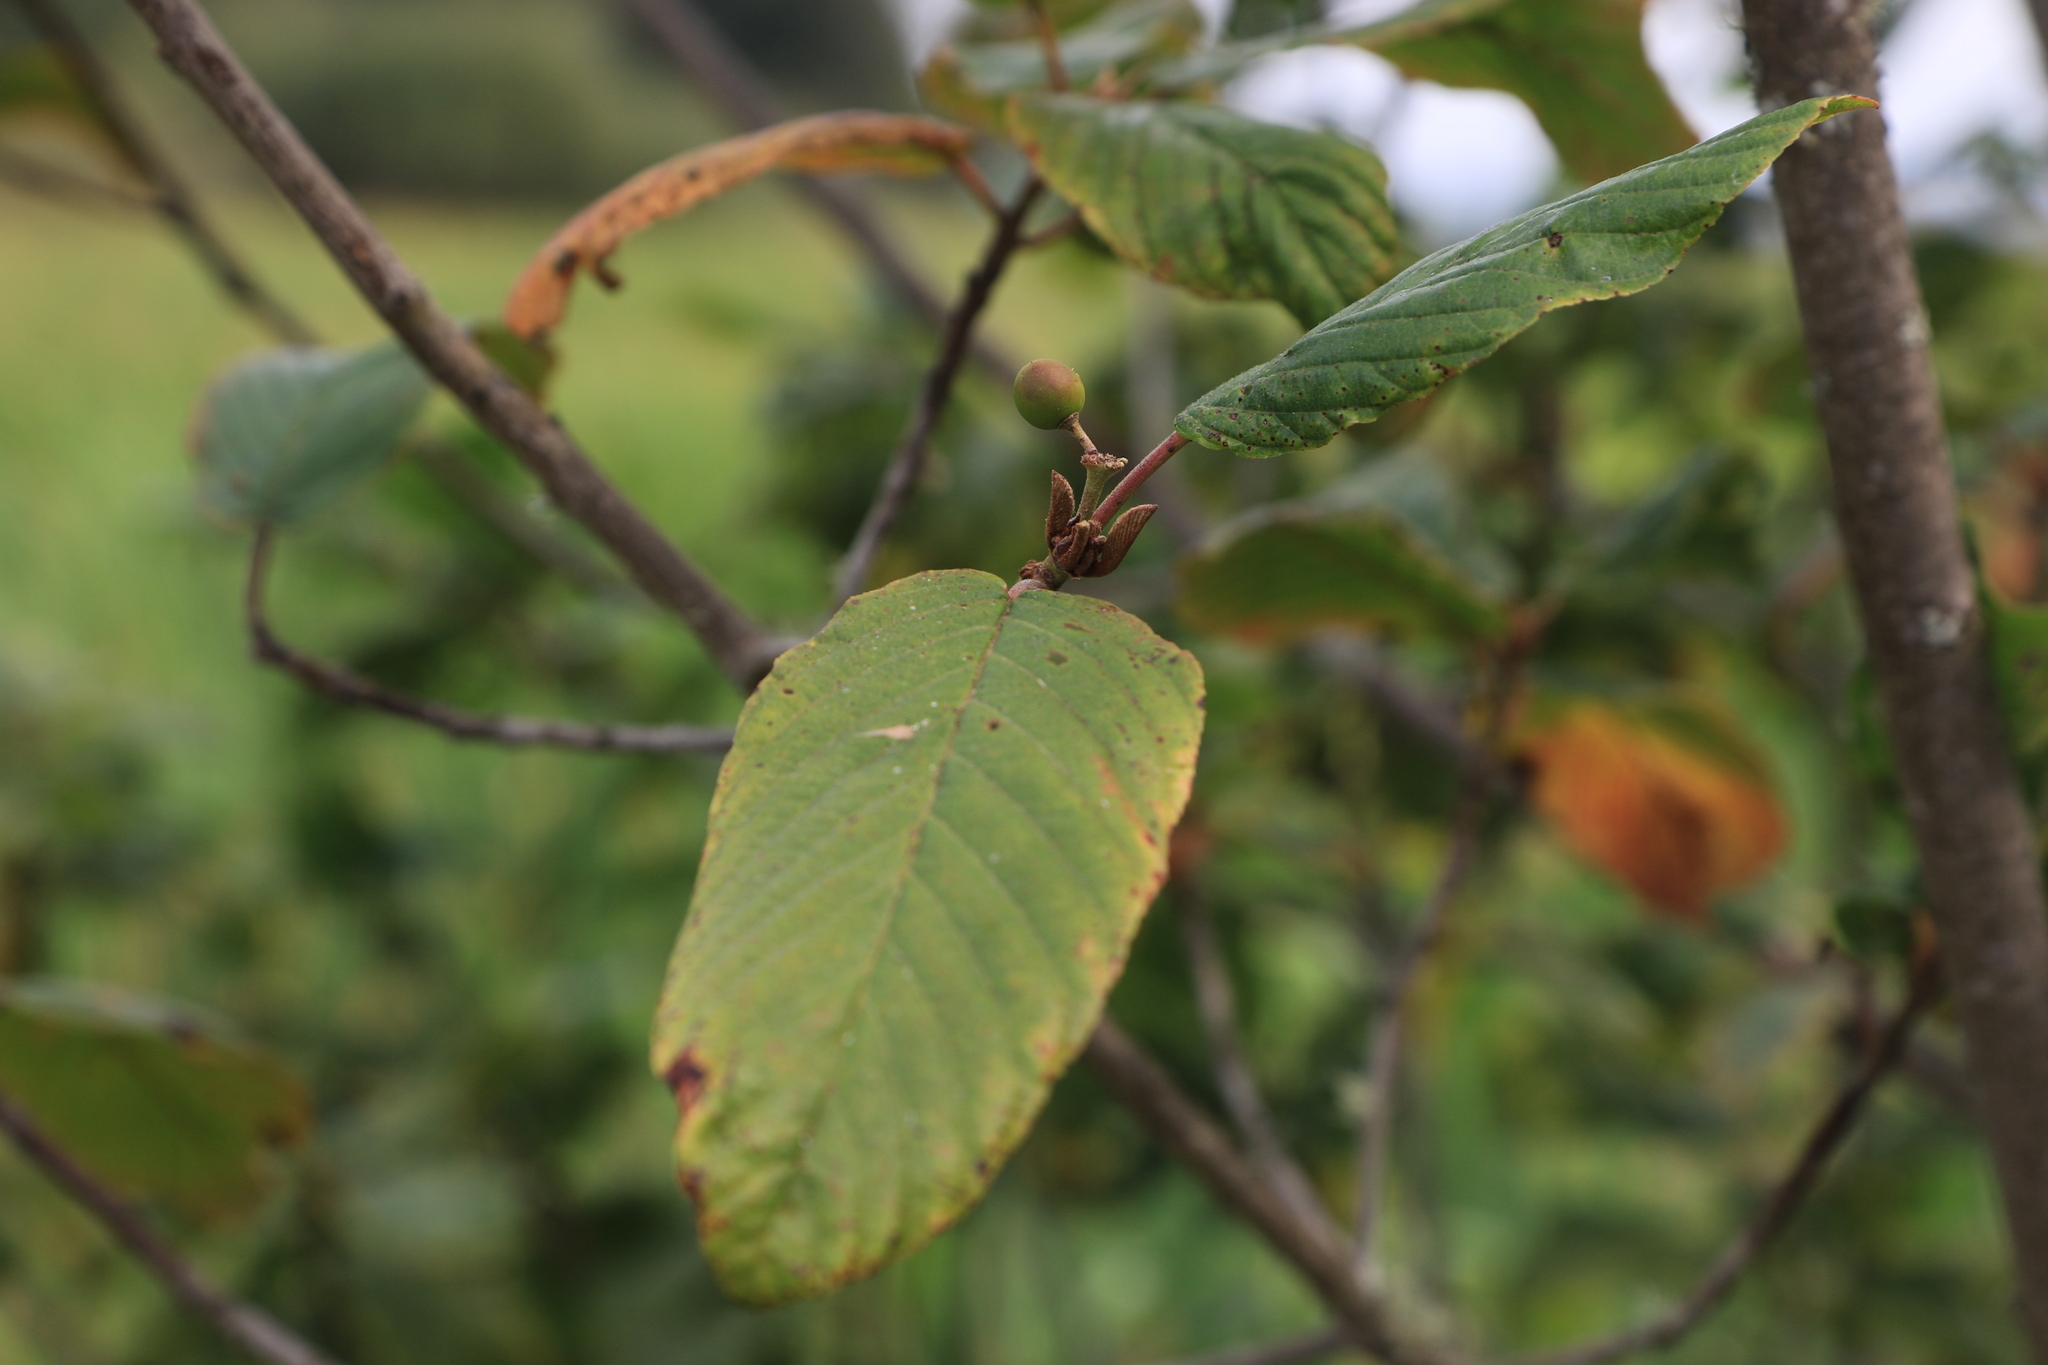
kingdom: Plantae
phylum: Tracheophyta
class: Magnoliopsida
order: Rosales
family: Rhamnaceae
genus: Frangula
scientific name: Frangula purshiana
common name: Cascara buckthorn
